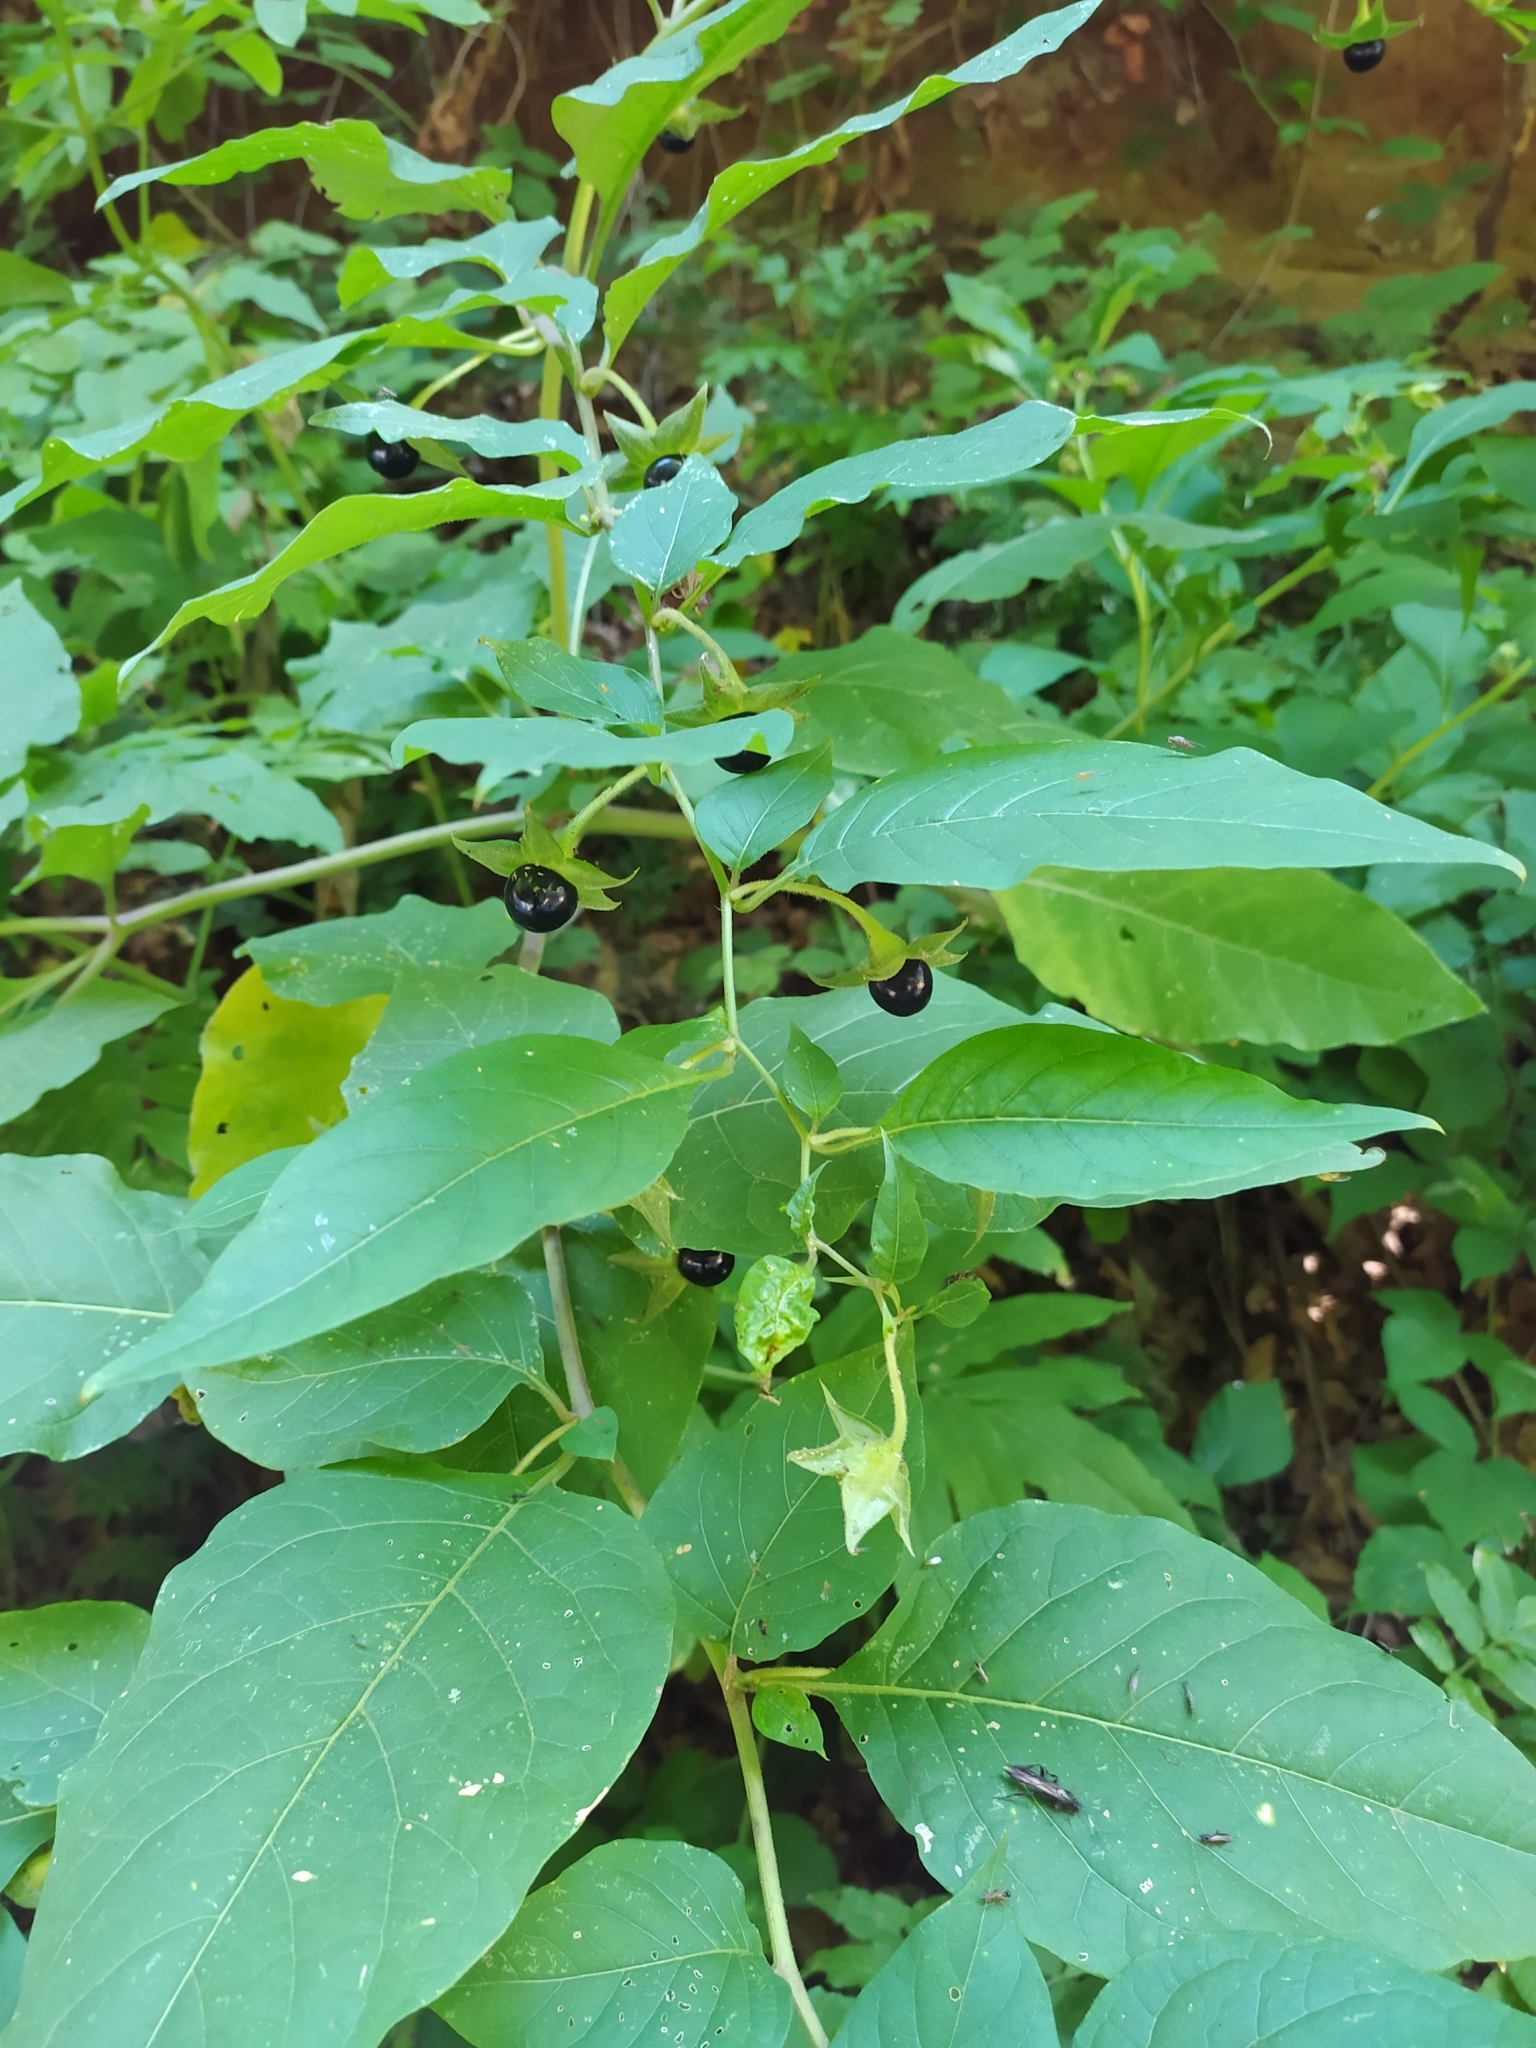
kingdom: Plantae
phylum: Tracheophyta
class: Magnoliopsida
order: Solanales
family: Solanaceae
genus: Atropa
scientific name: Atropa belladonna
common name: Deadly nightshade
